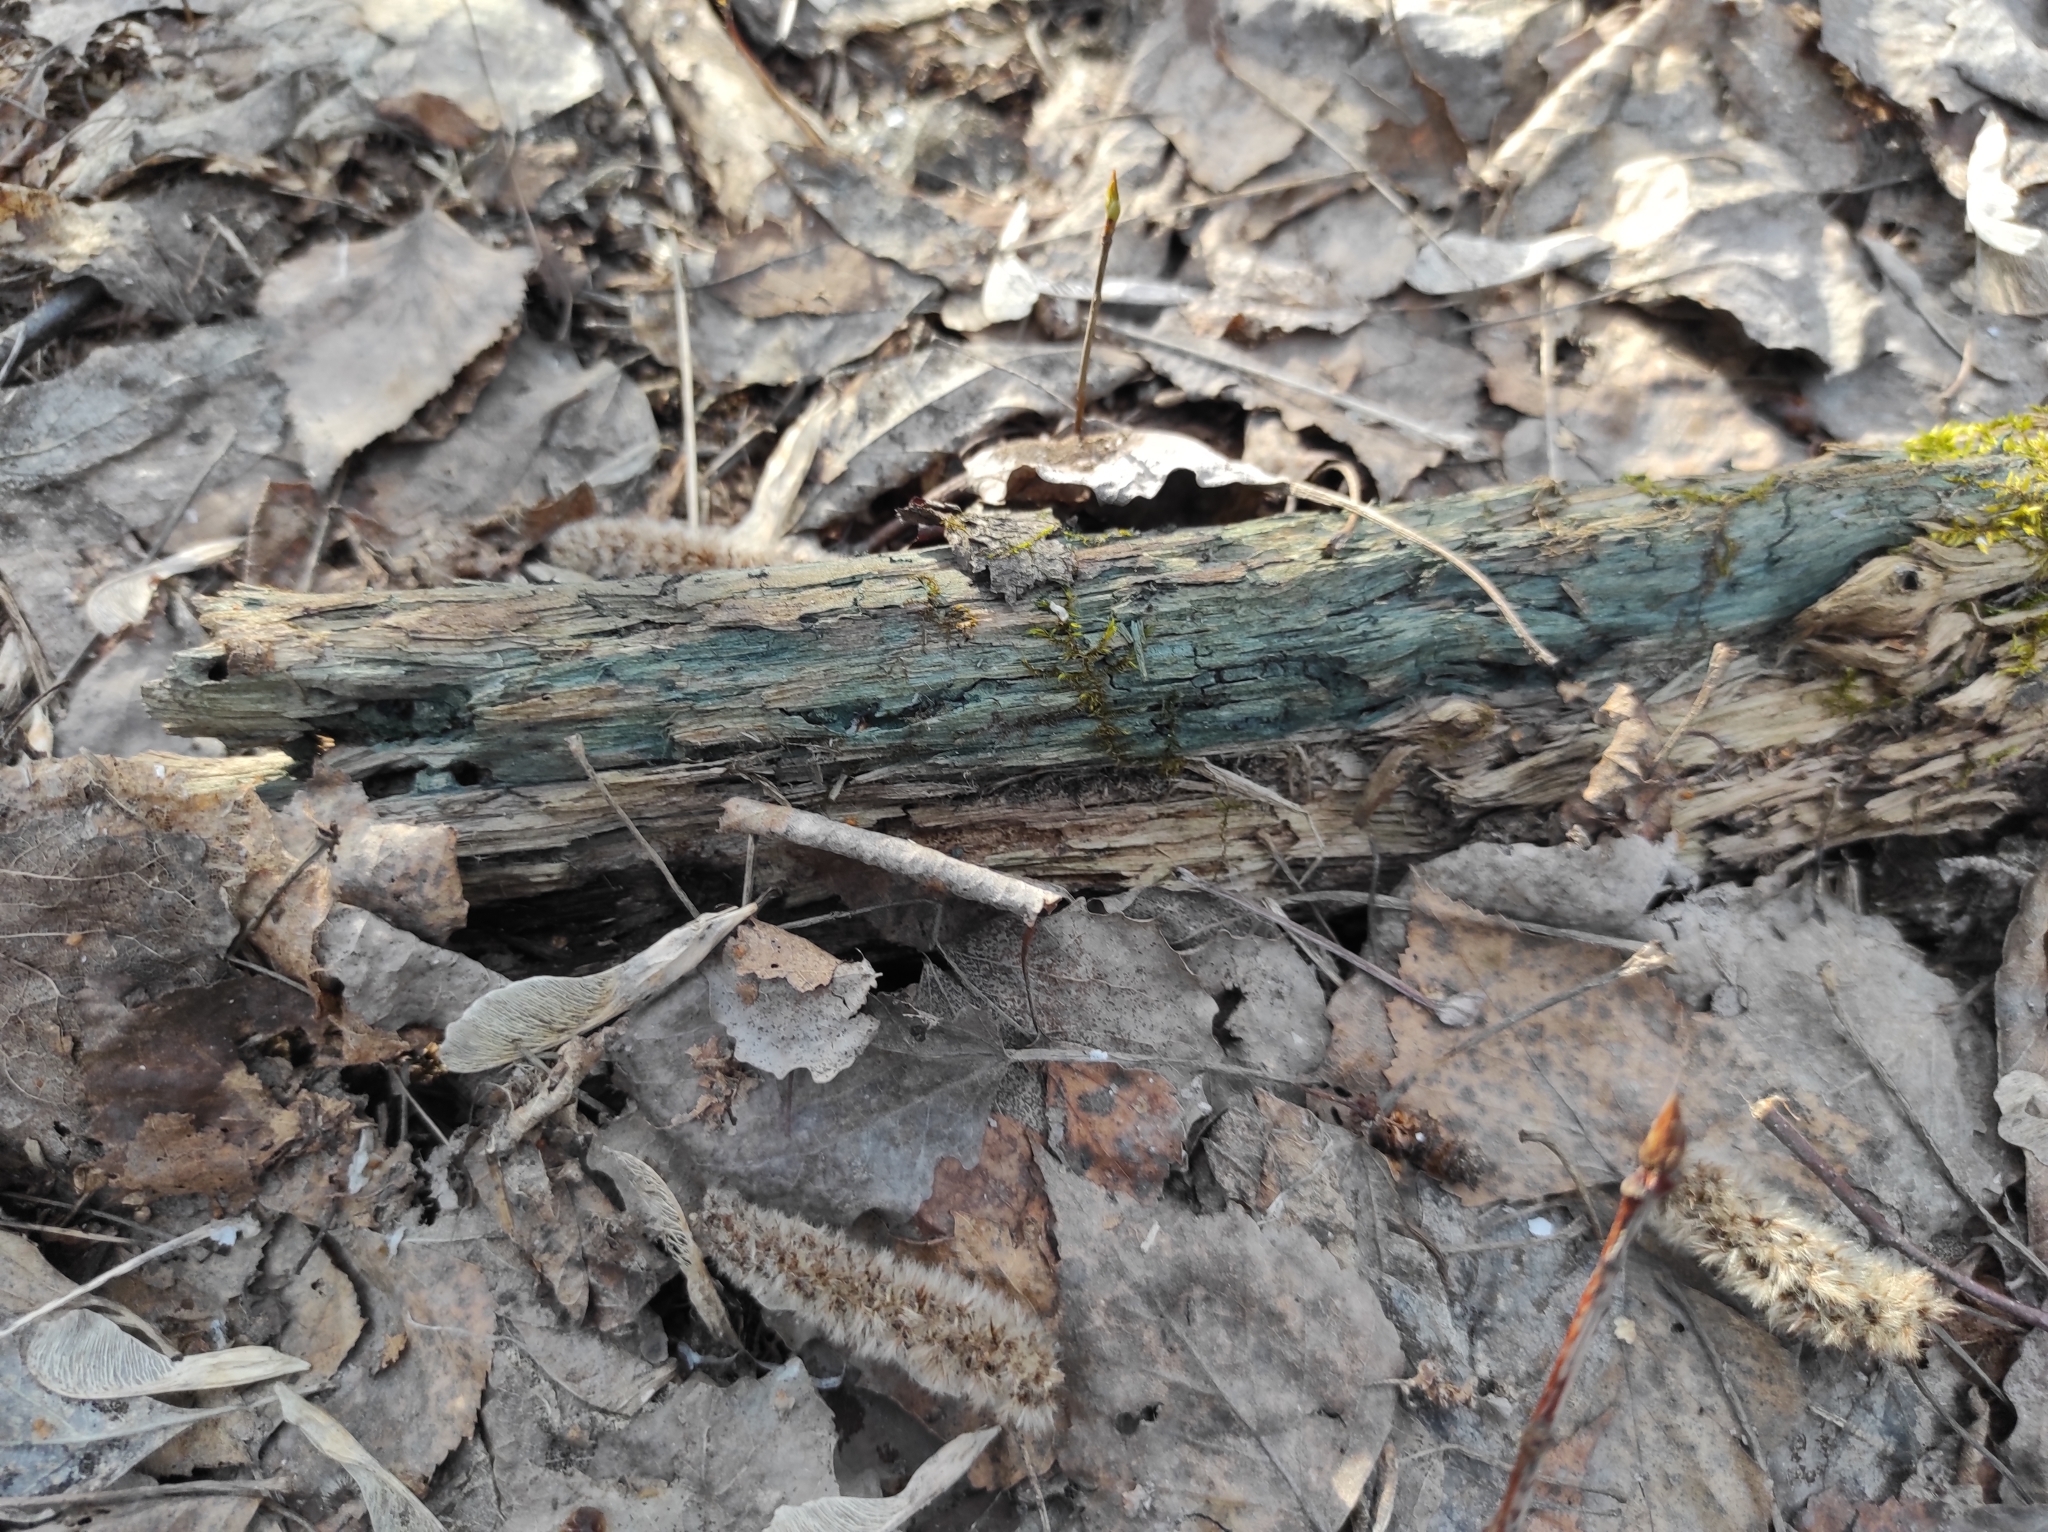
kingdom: Fungi
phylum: Ascomycota
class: Leotiomycetes
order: Helotiales
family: Chlorociboriaceae
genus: Chlorociboria
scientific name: Chlorociboria
